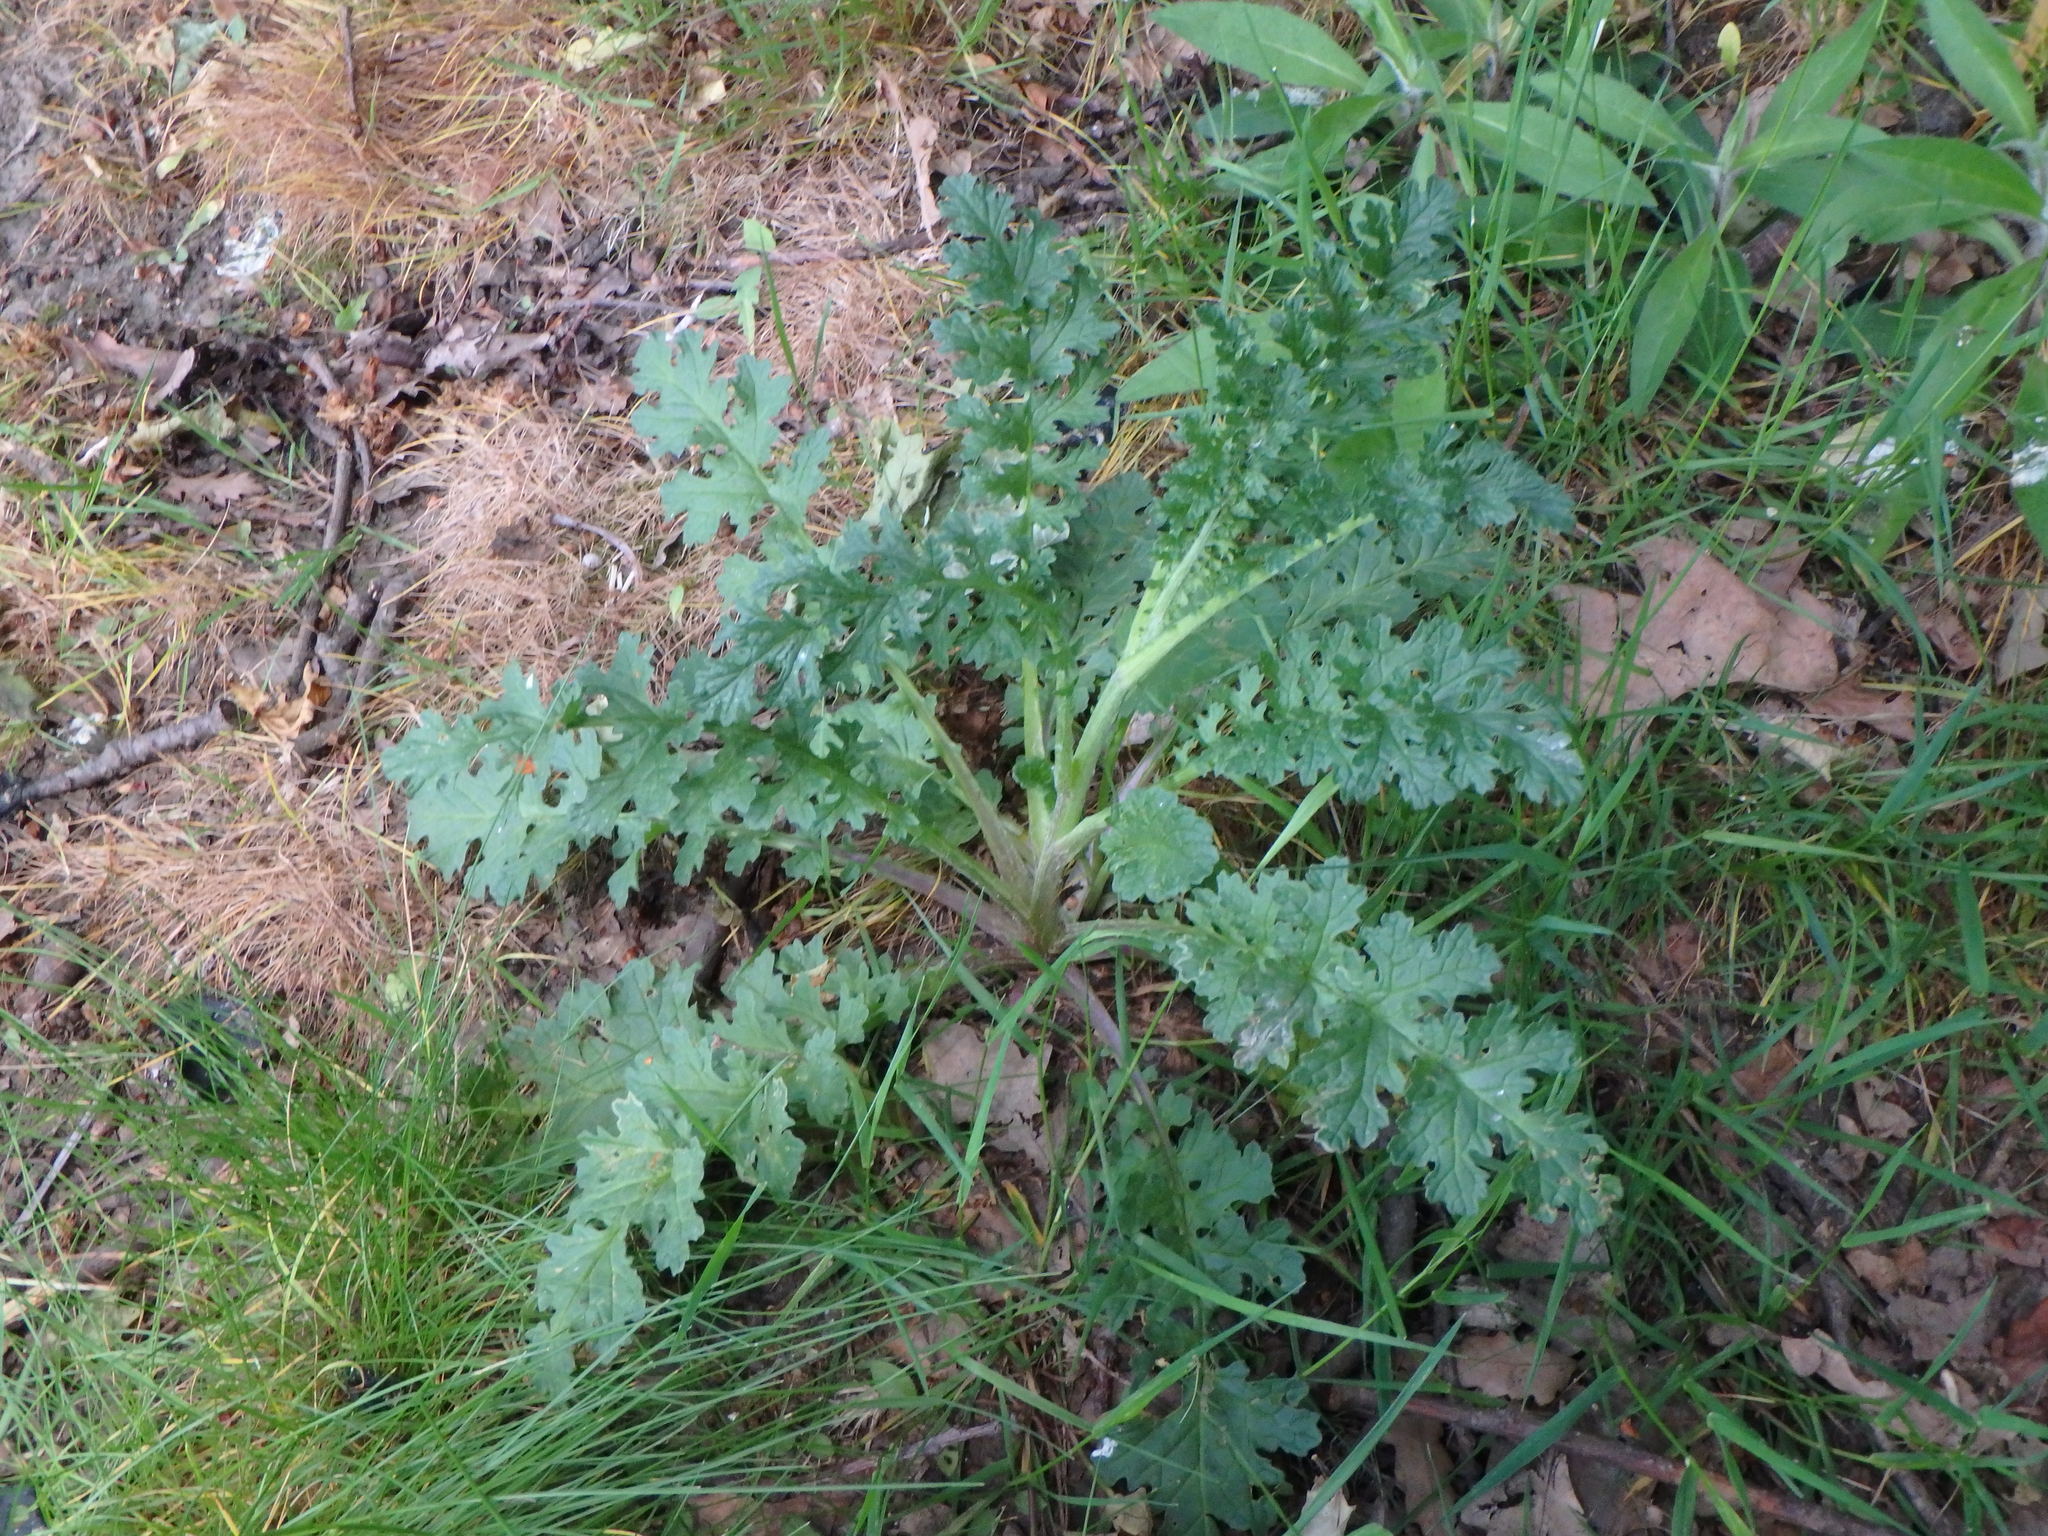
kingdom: Plantae
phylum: Tracheophyta
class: Magnoliopsida
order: Asterales
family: Asteraceae
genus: Jacobaea
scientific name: Jacobaea vulgaris
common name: Stinking willie
